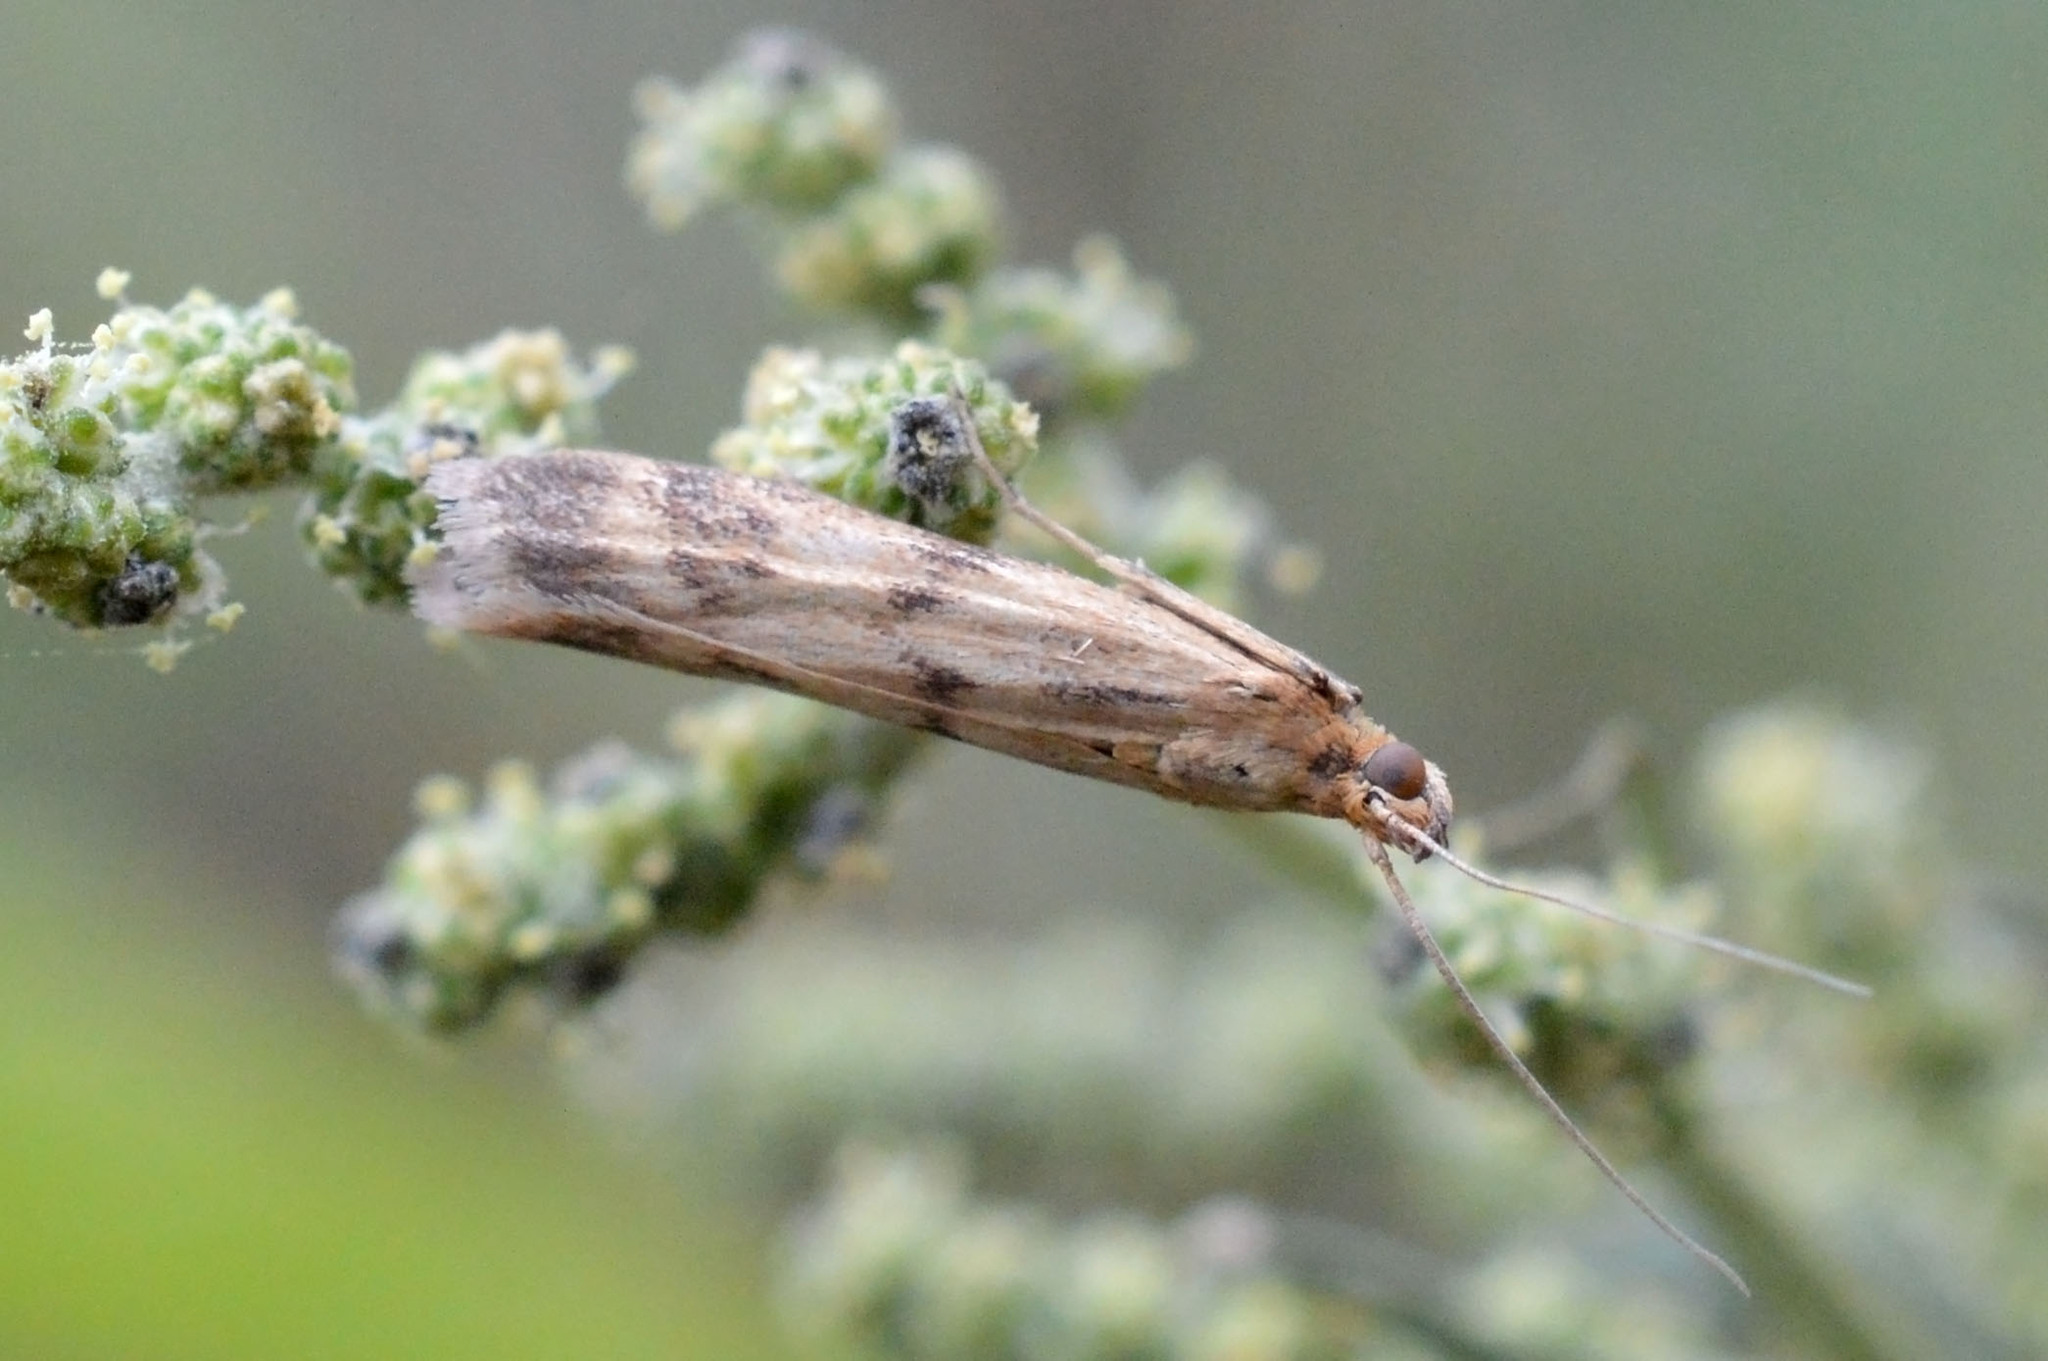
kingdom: Animalia
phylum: Arthropoda
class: Insecta
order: Lepidoptera
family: Pyralidae
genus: Homoeosoma
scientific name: Homoeosoma sinuella
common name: Twin-barred knot-horn
